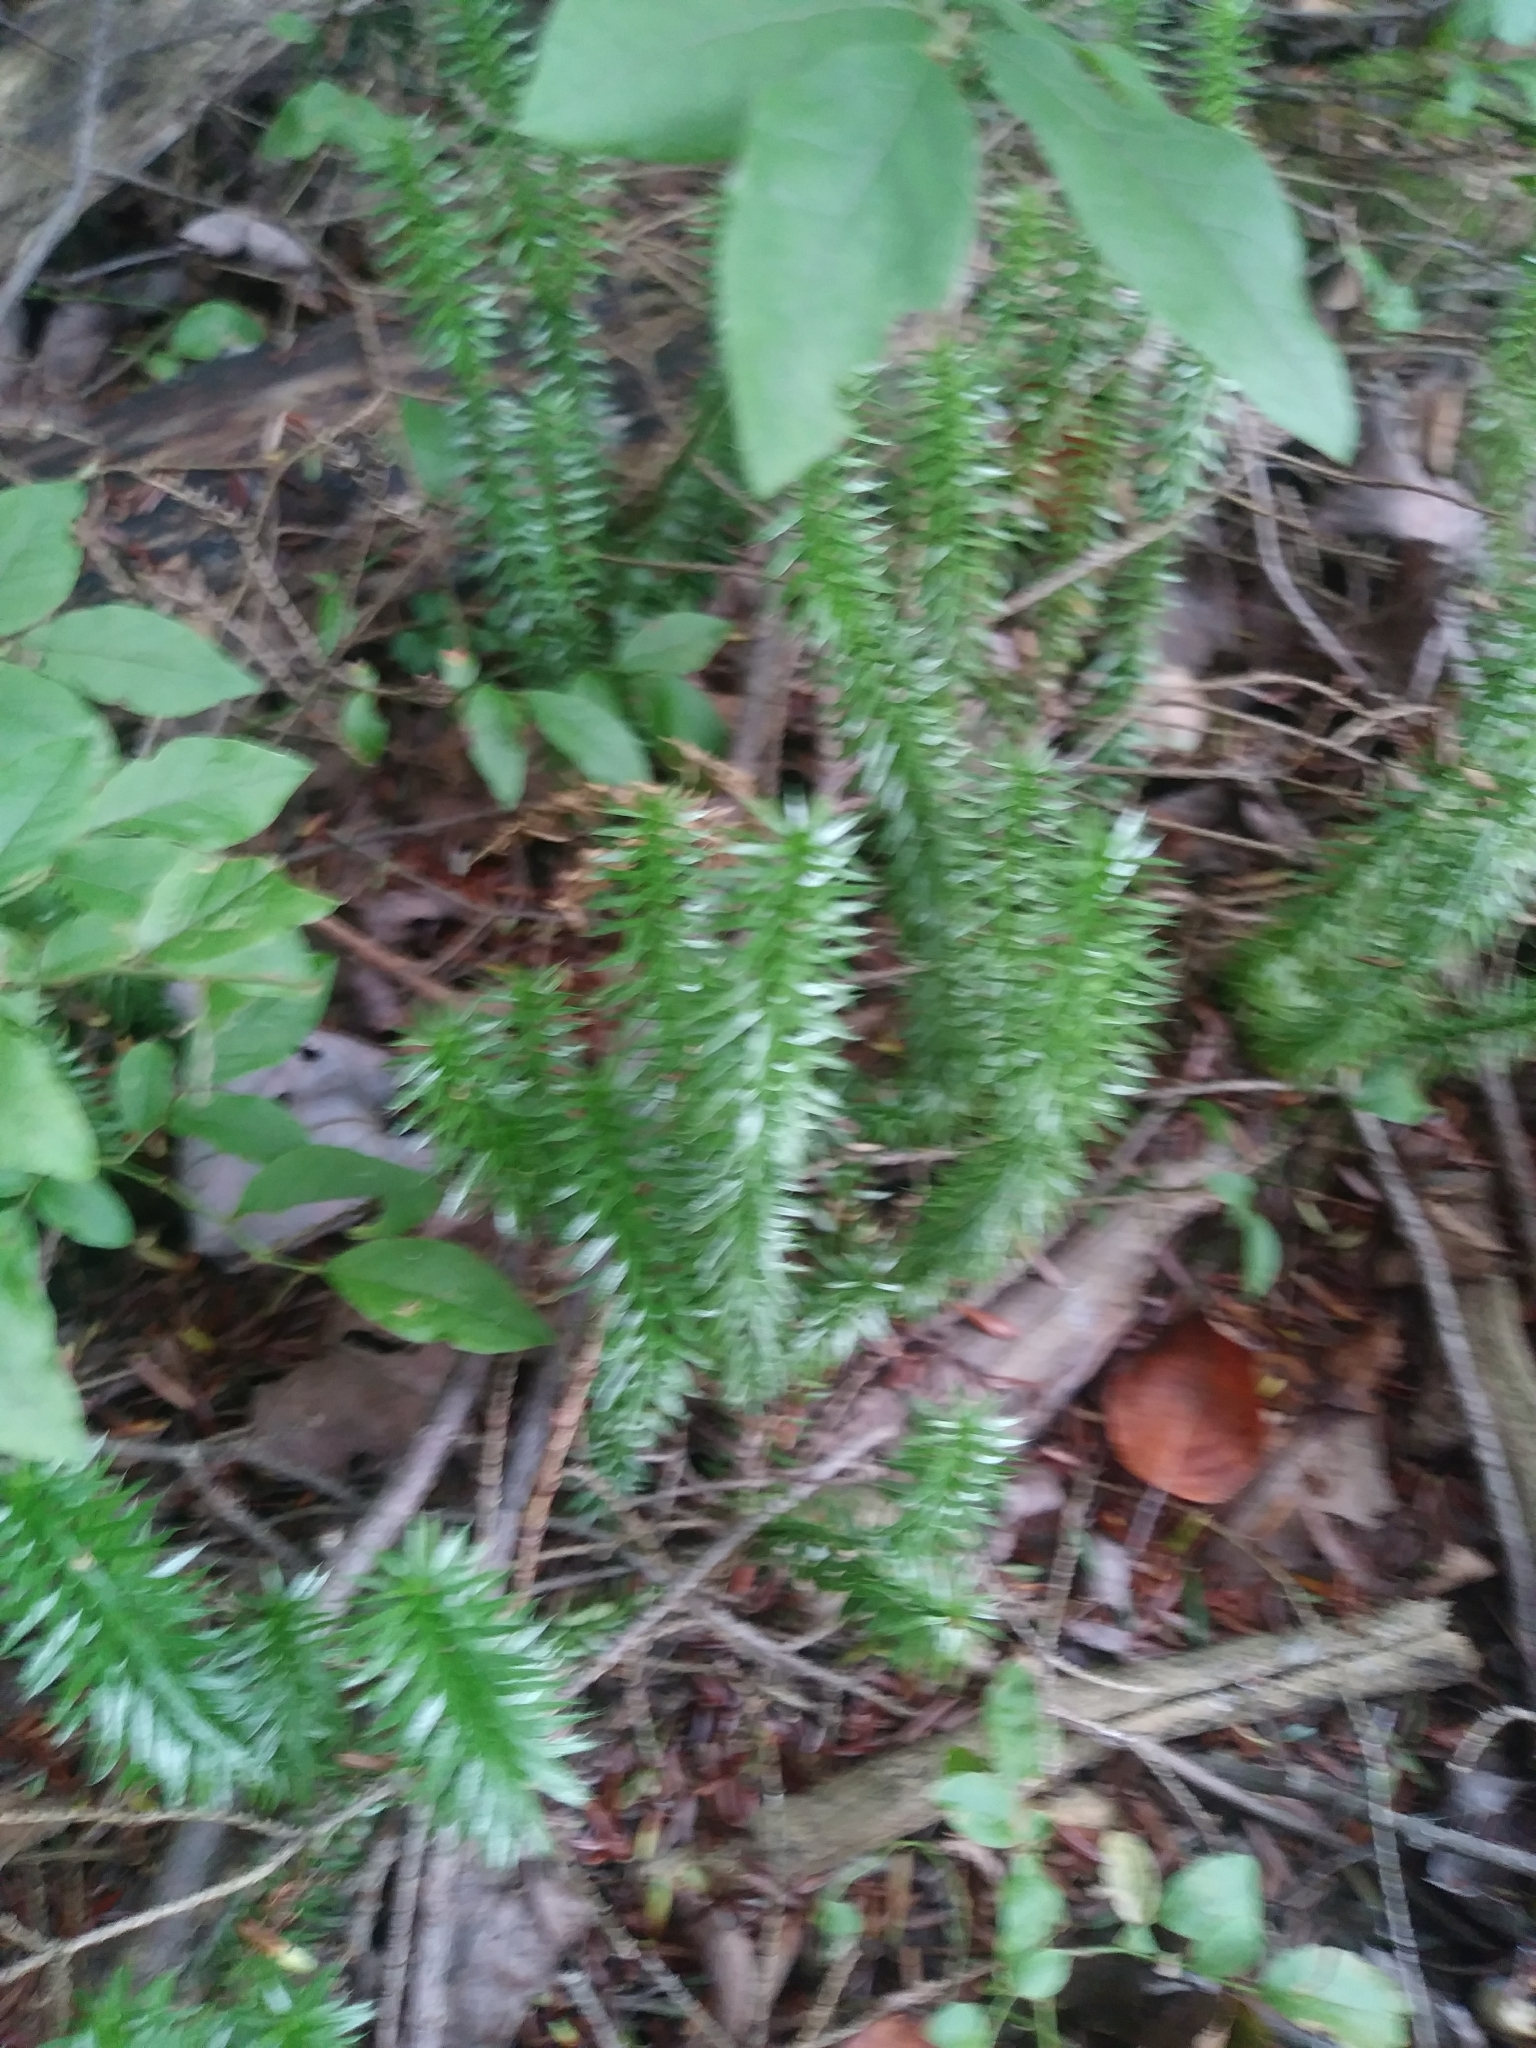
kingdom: Plantae
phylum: Tracheophyta
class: Lycopodiopsida
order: Lycopodiales
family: Lycopodiaceae
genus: Spinulum
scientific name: Spinulum annotinum
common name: Interrupted club-moss
